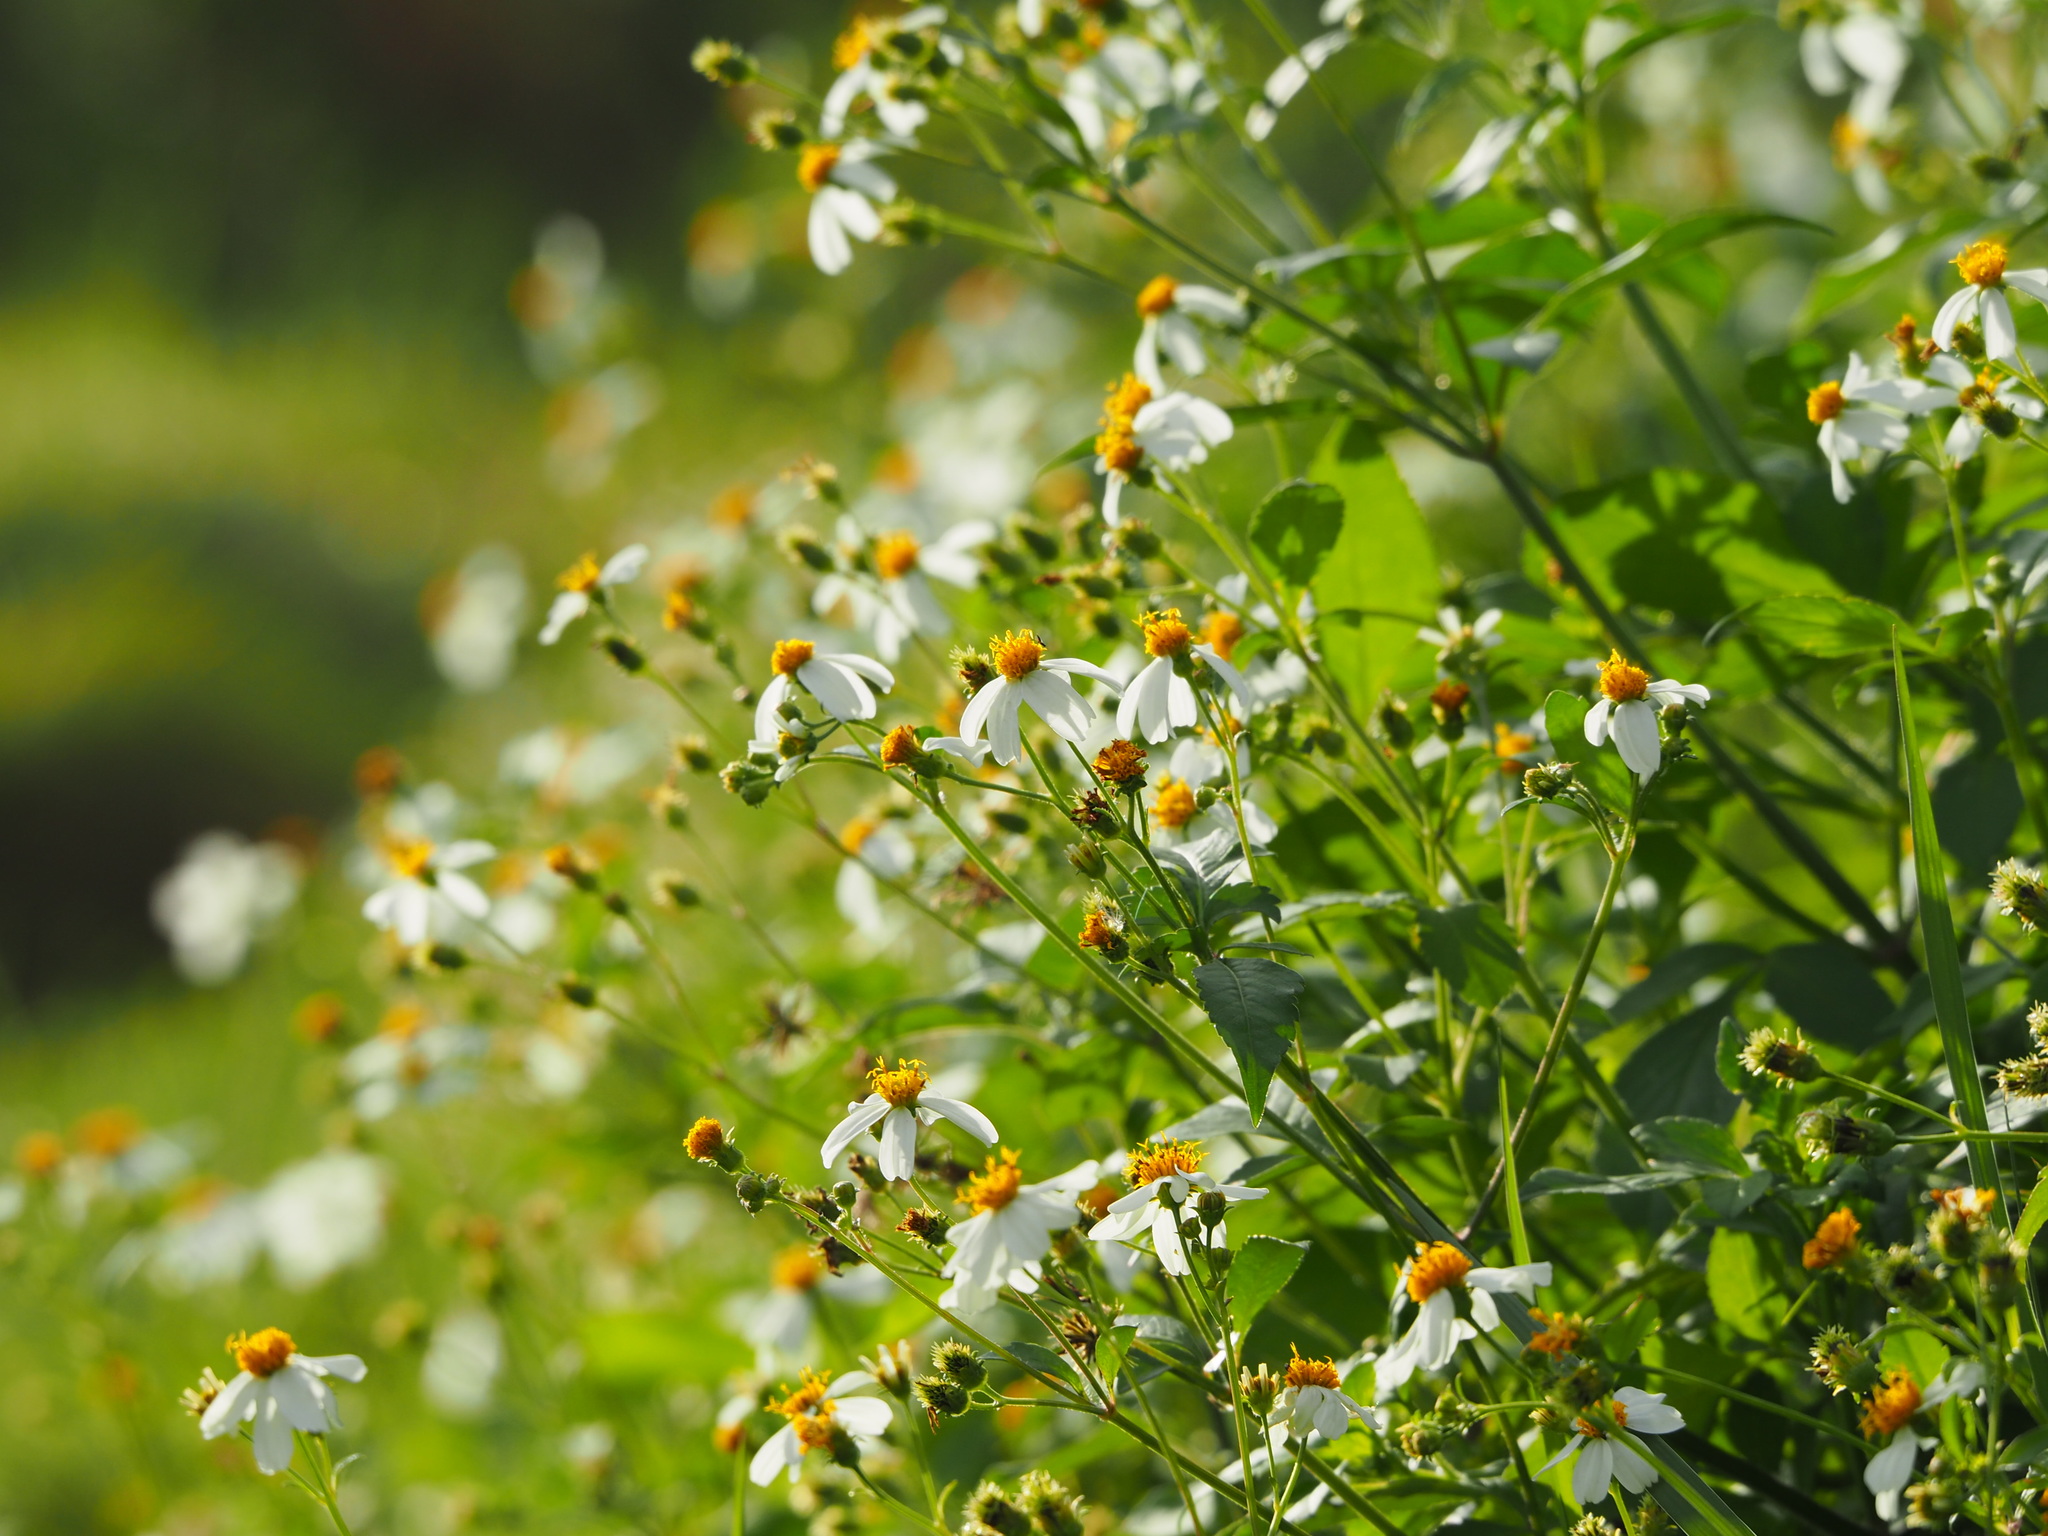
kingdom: Plantae
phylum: Tracheophyta
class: Magnoliopsida
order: Asterales
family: Asteraceae
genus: Bidens
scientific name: Bidens alba
